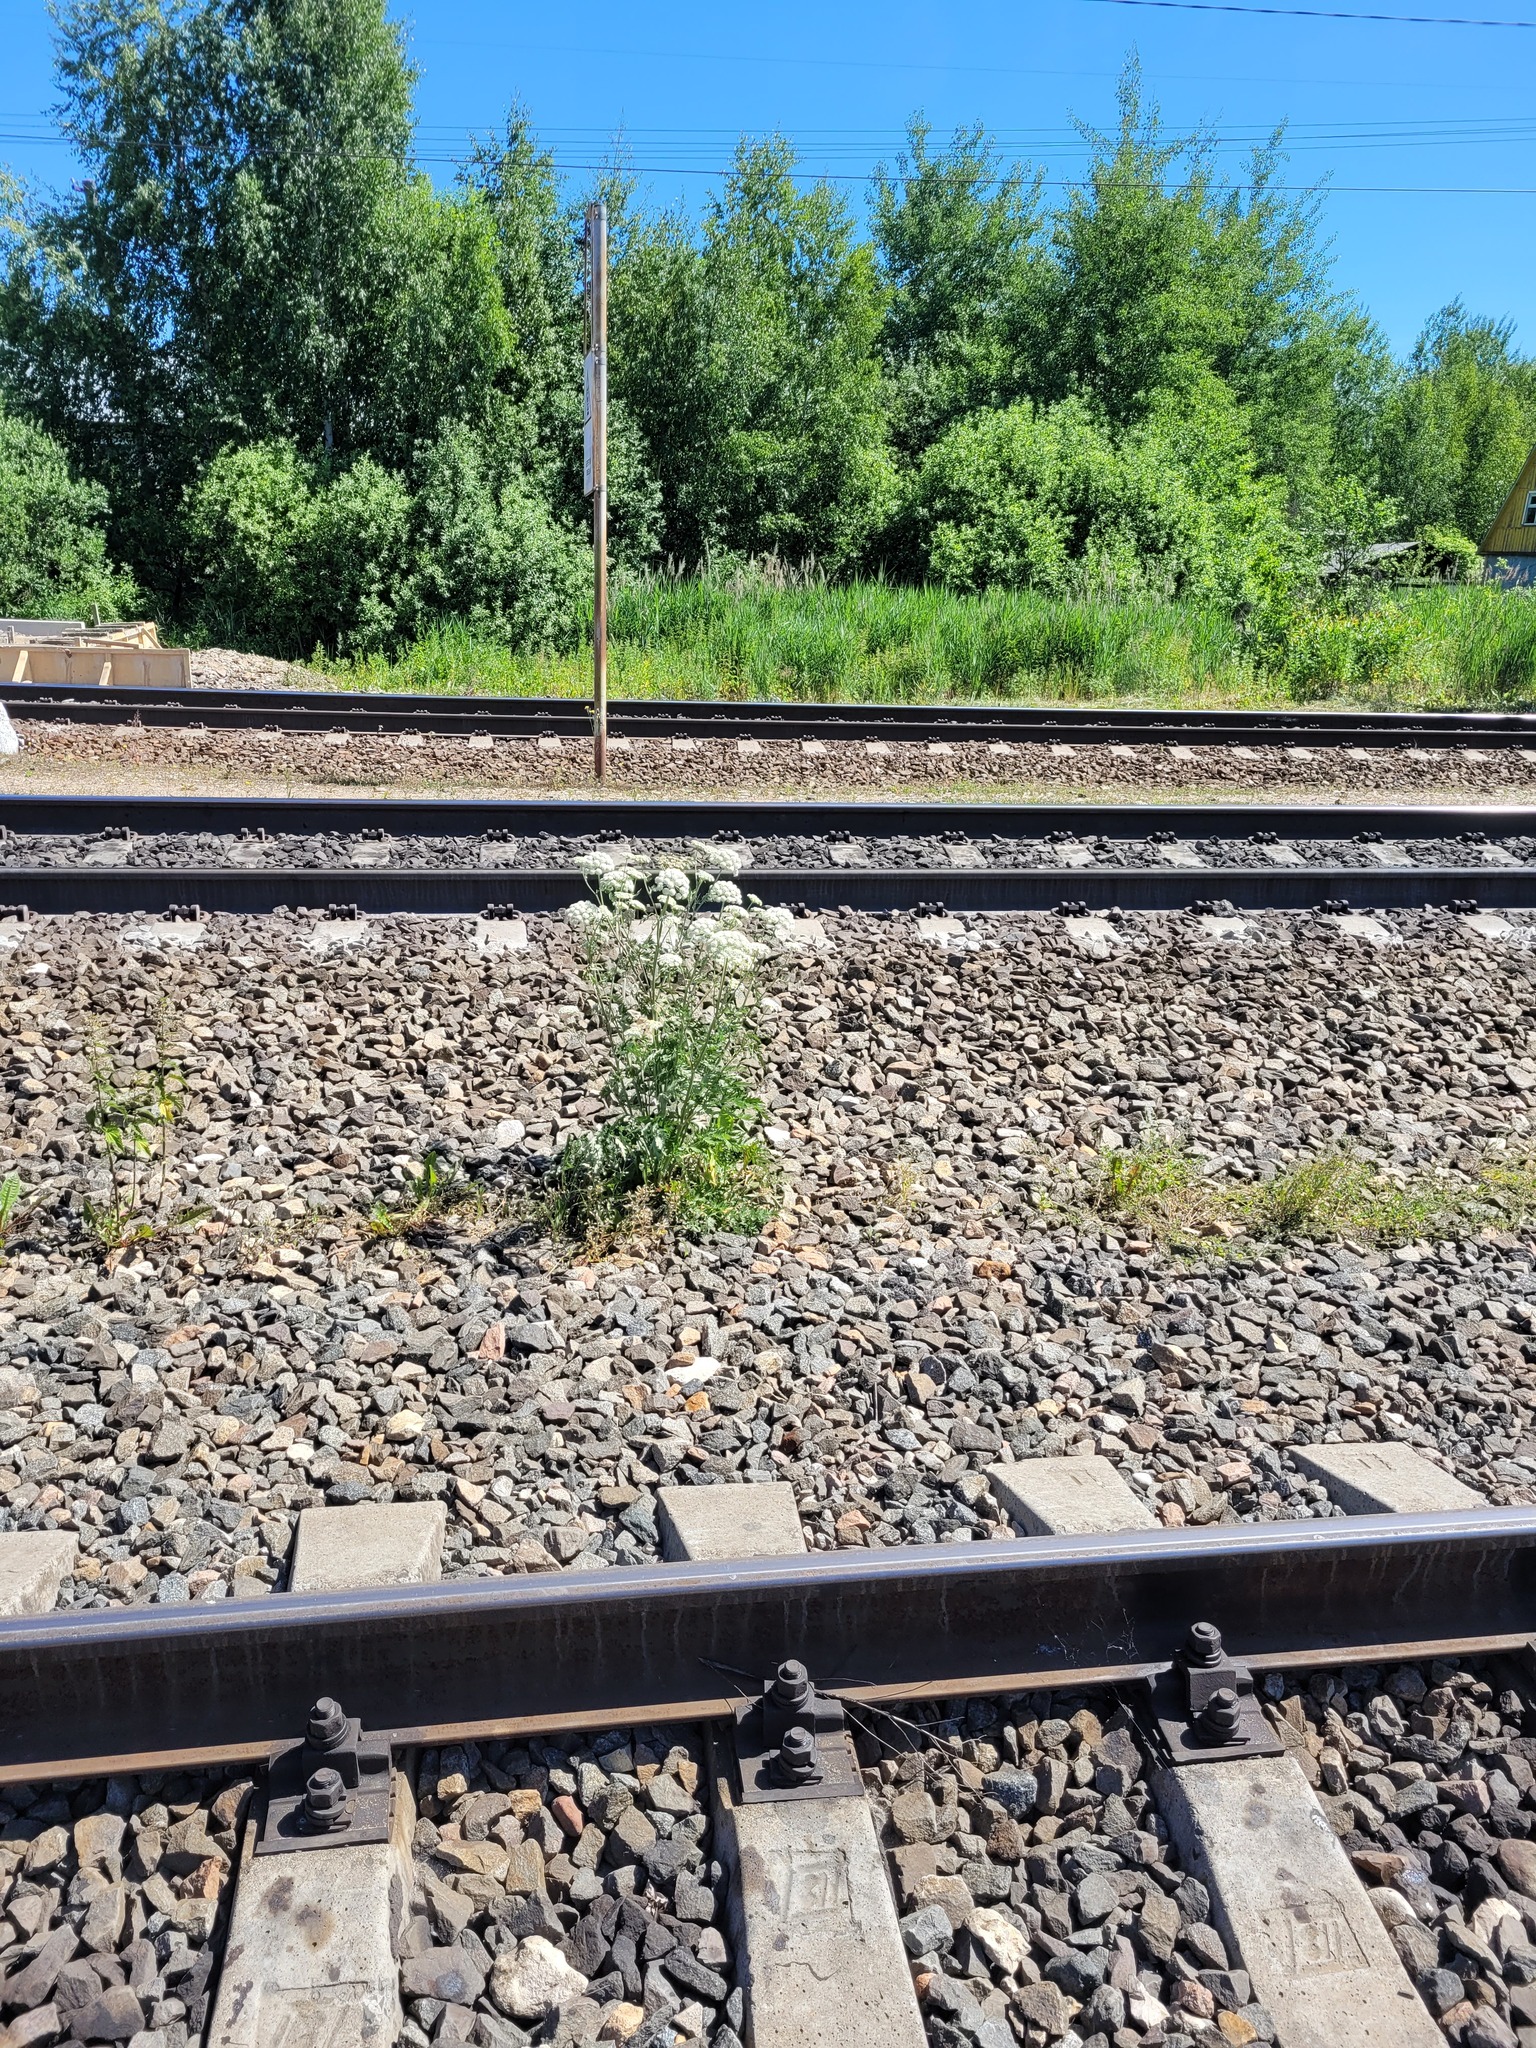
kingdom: Plantae
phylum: Tracheophyta
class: Magnoliopsida
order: Apiales
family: Apiaceae
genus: Seseli
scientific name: Seseli libanotis
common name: Mooncarrot
